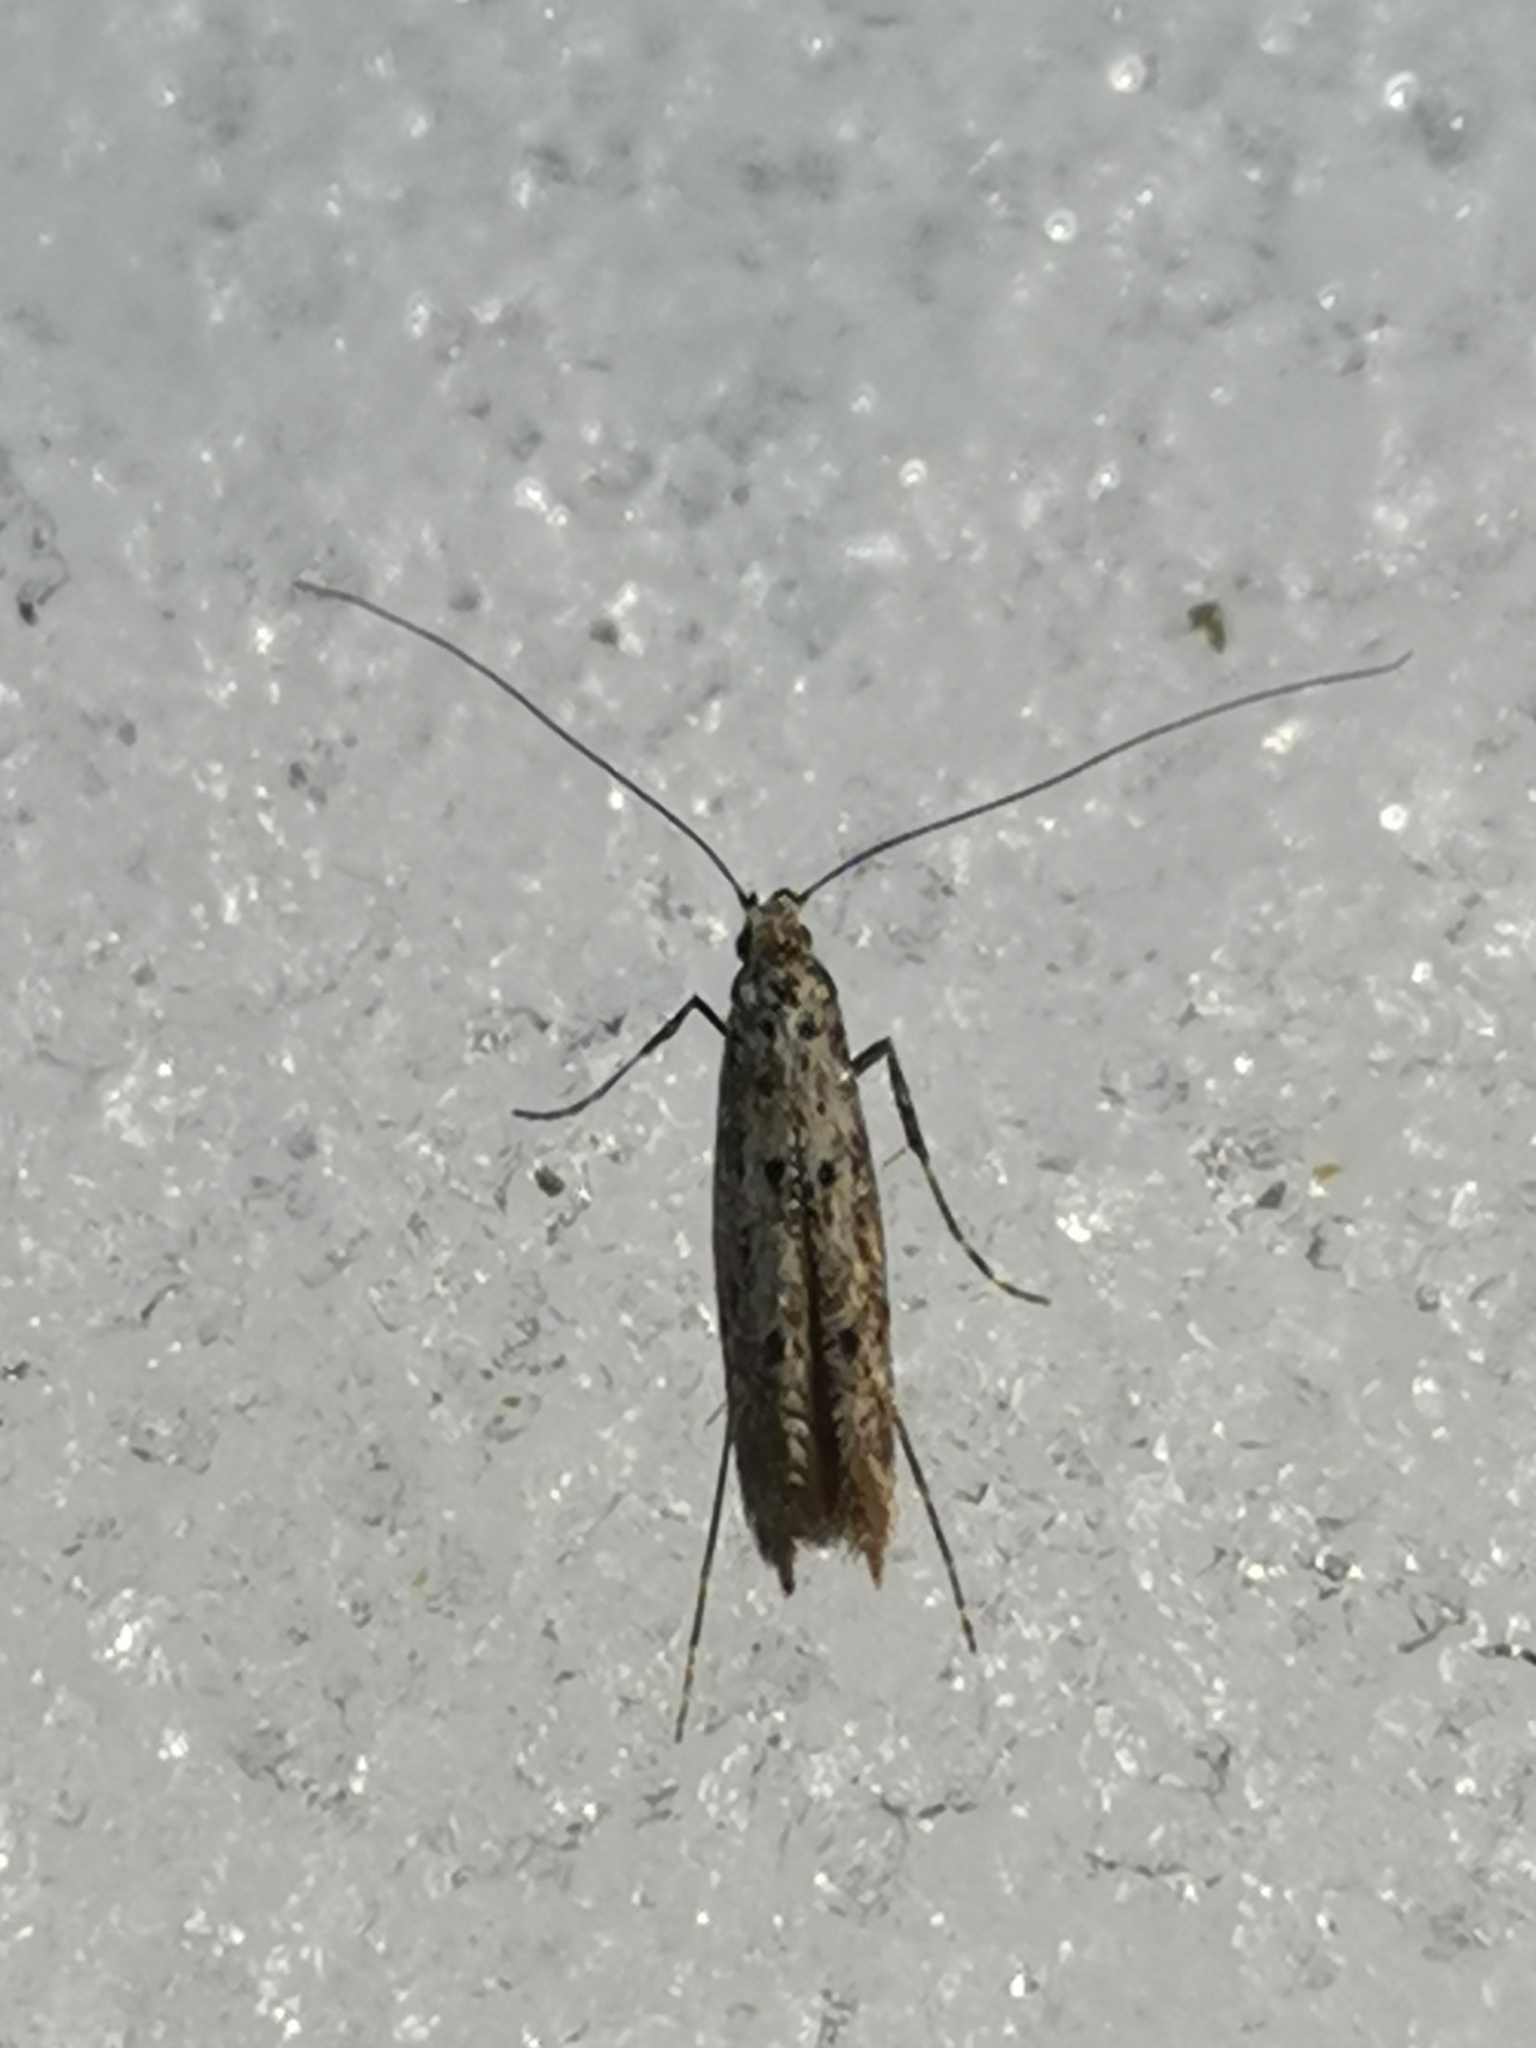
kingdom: Animalia
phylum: Arthropoda
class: Insecta
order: Lepidoptera
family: Gracillariidae
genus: Caloptilia
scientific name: Caloptilia suberinella
